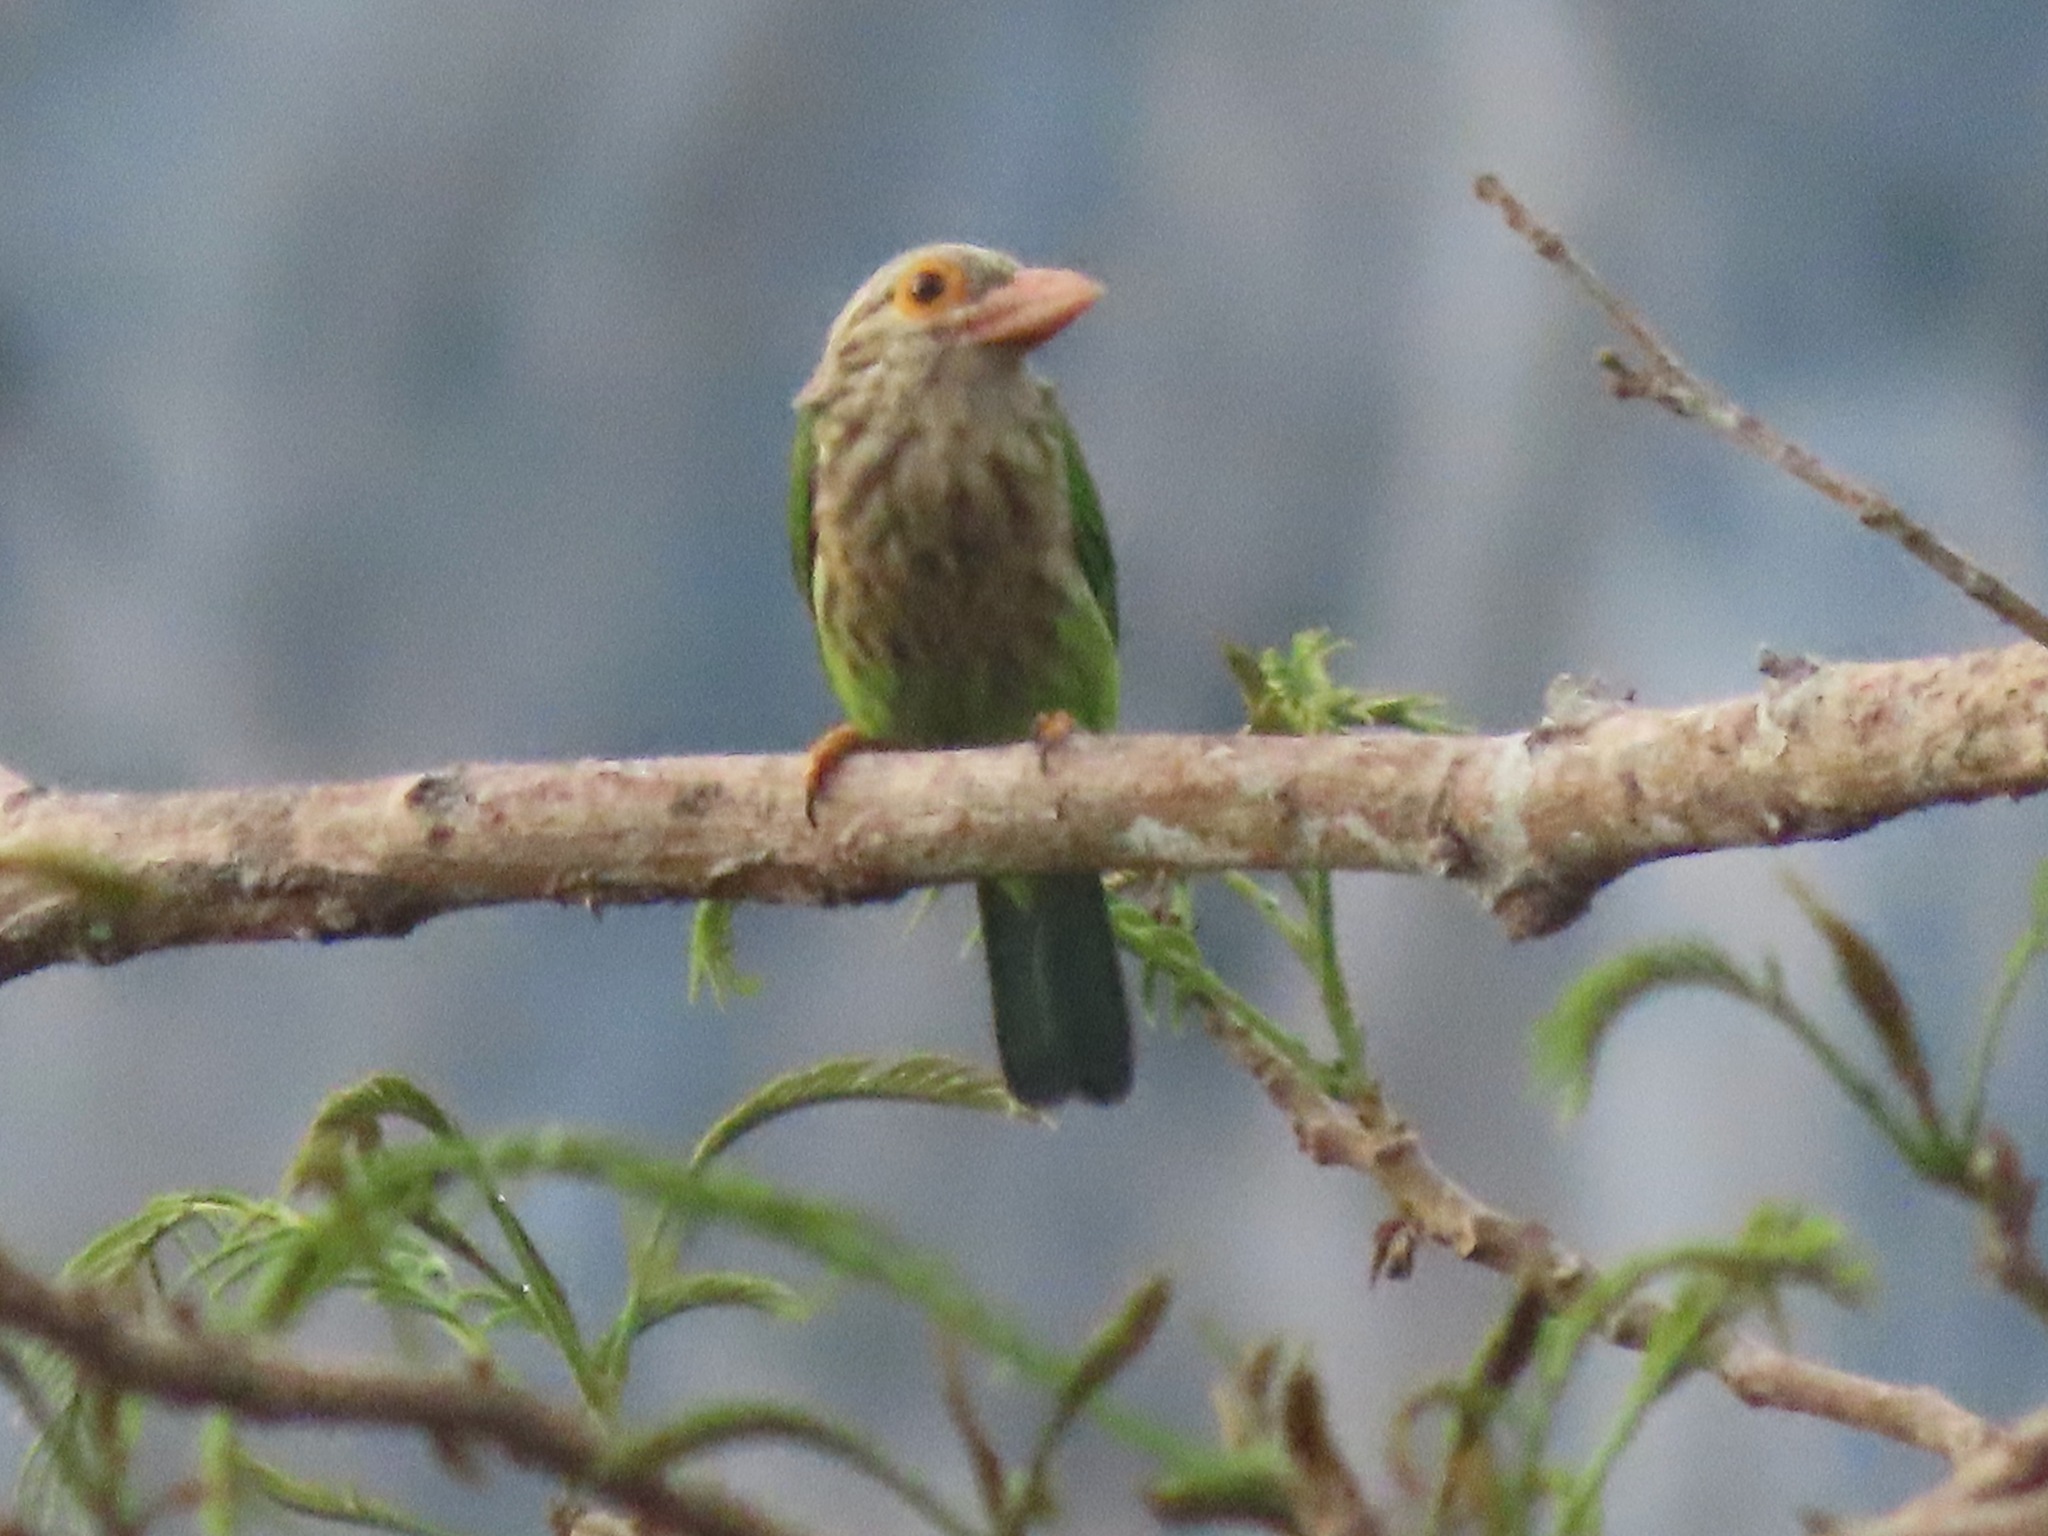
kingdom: Animalia
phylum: Chordata
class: Aves
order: Piciformes
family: Megalaimidae
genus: Psilopogon
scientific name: Psilopogon lineatus
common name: Lineated barbet
